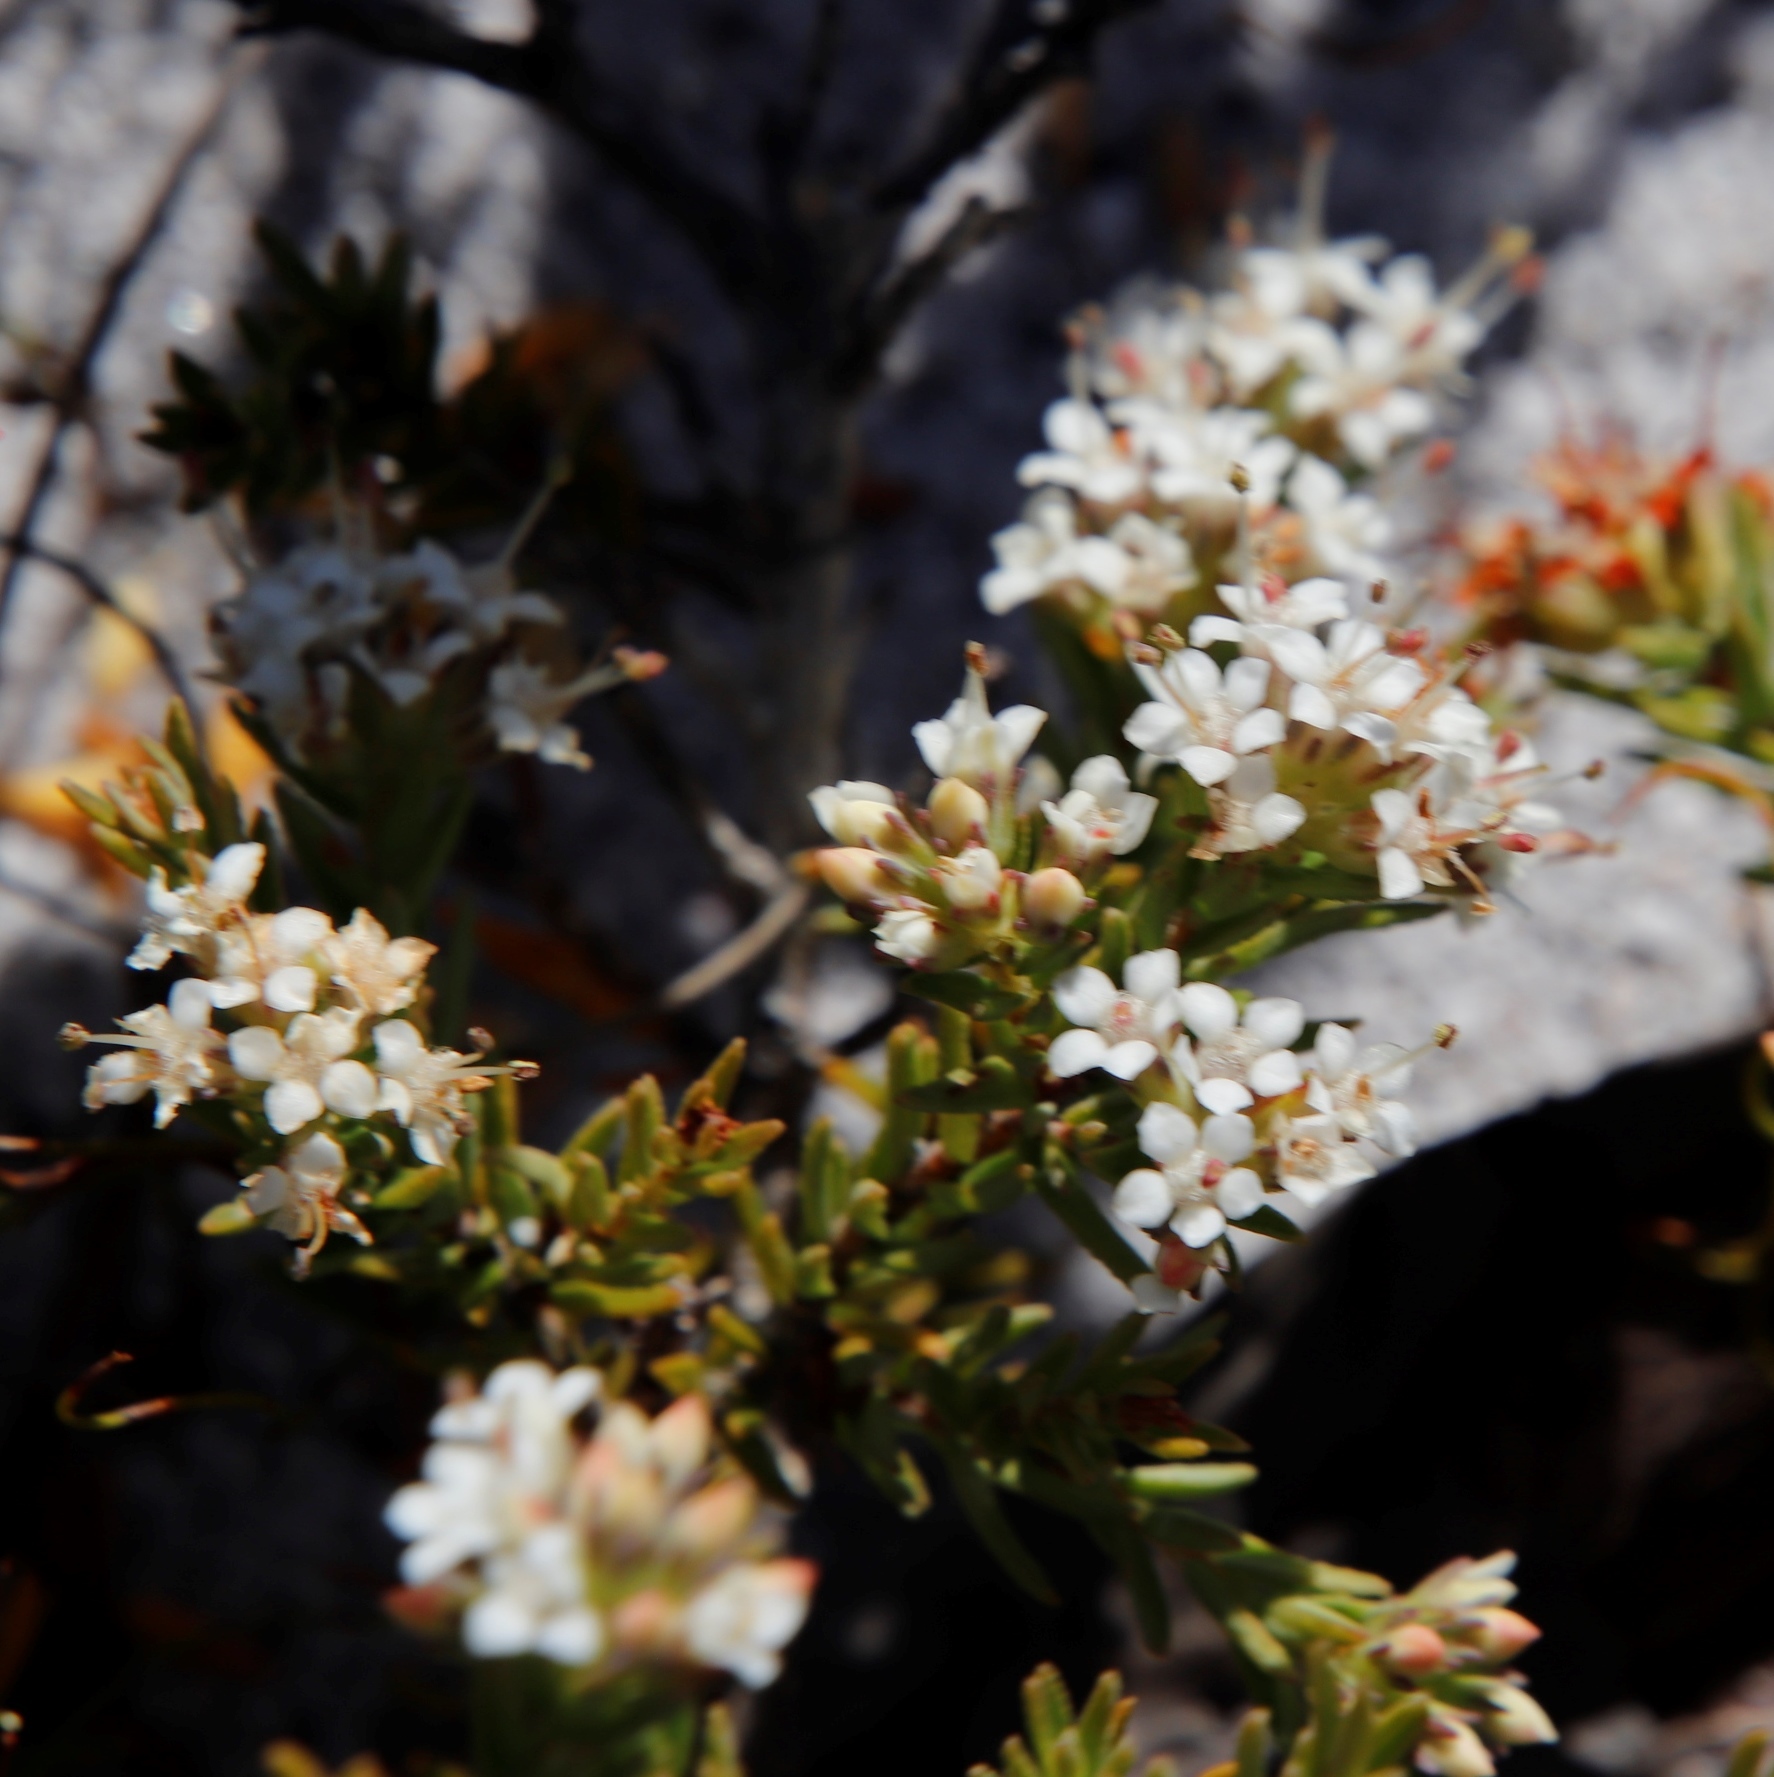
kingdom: Plantae
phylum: Tracheophyta
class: Magnoliopsida
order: Sapindales
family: Rutaceae
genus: Macrostylis
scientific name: Macrostylis villosa
